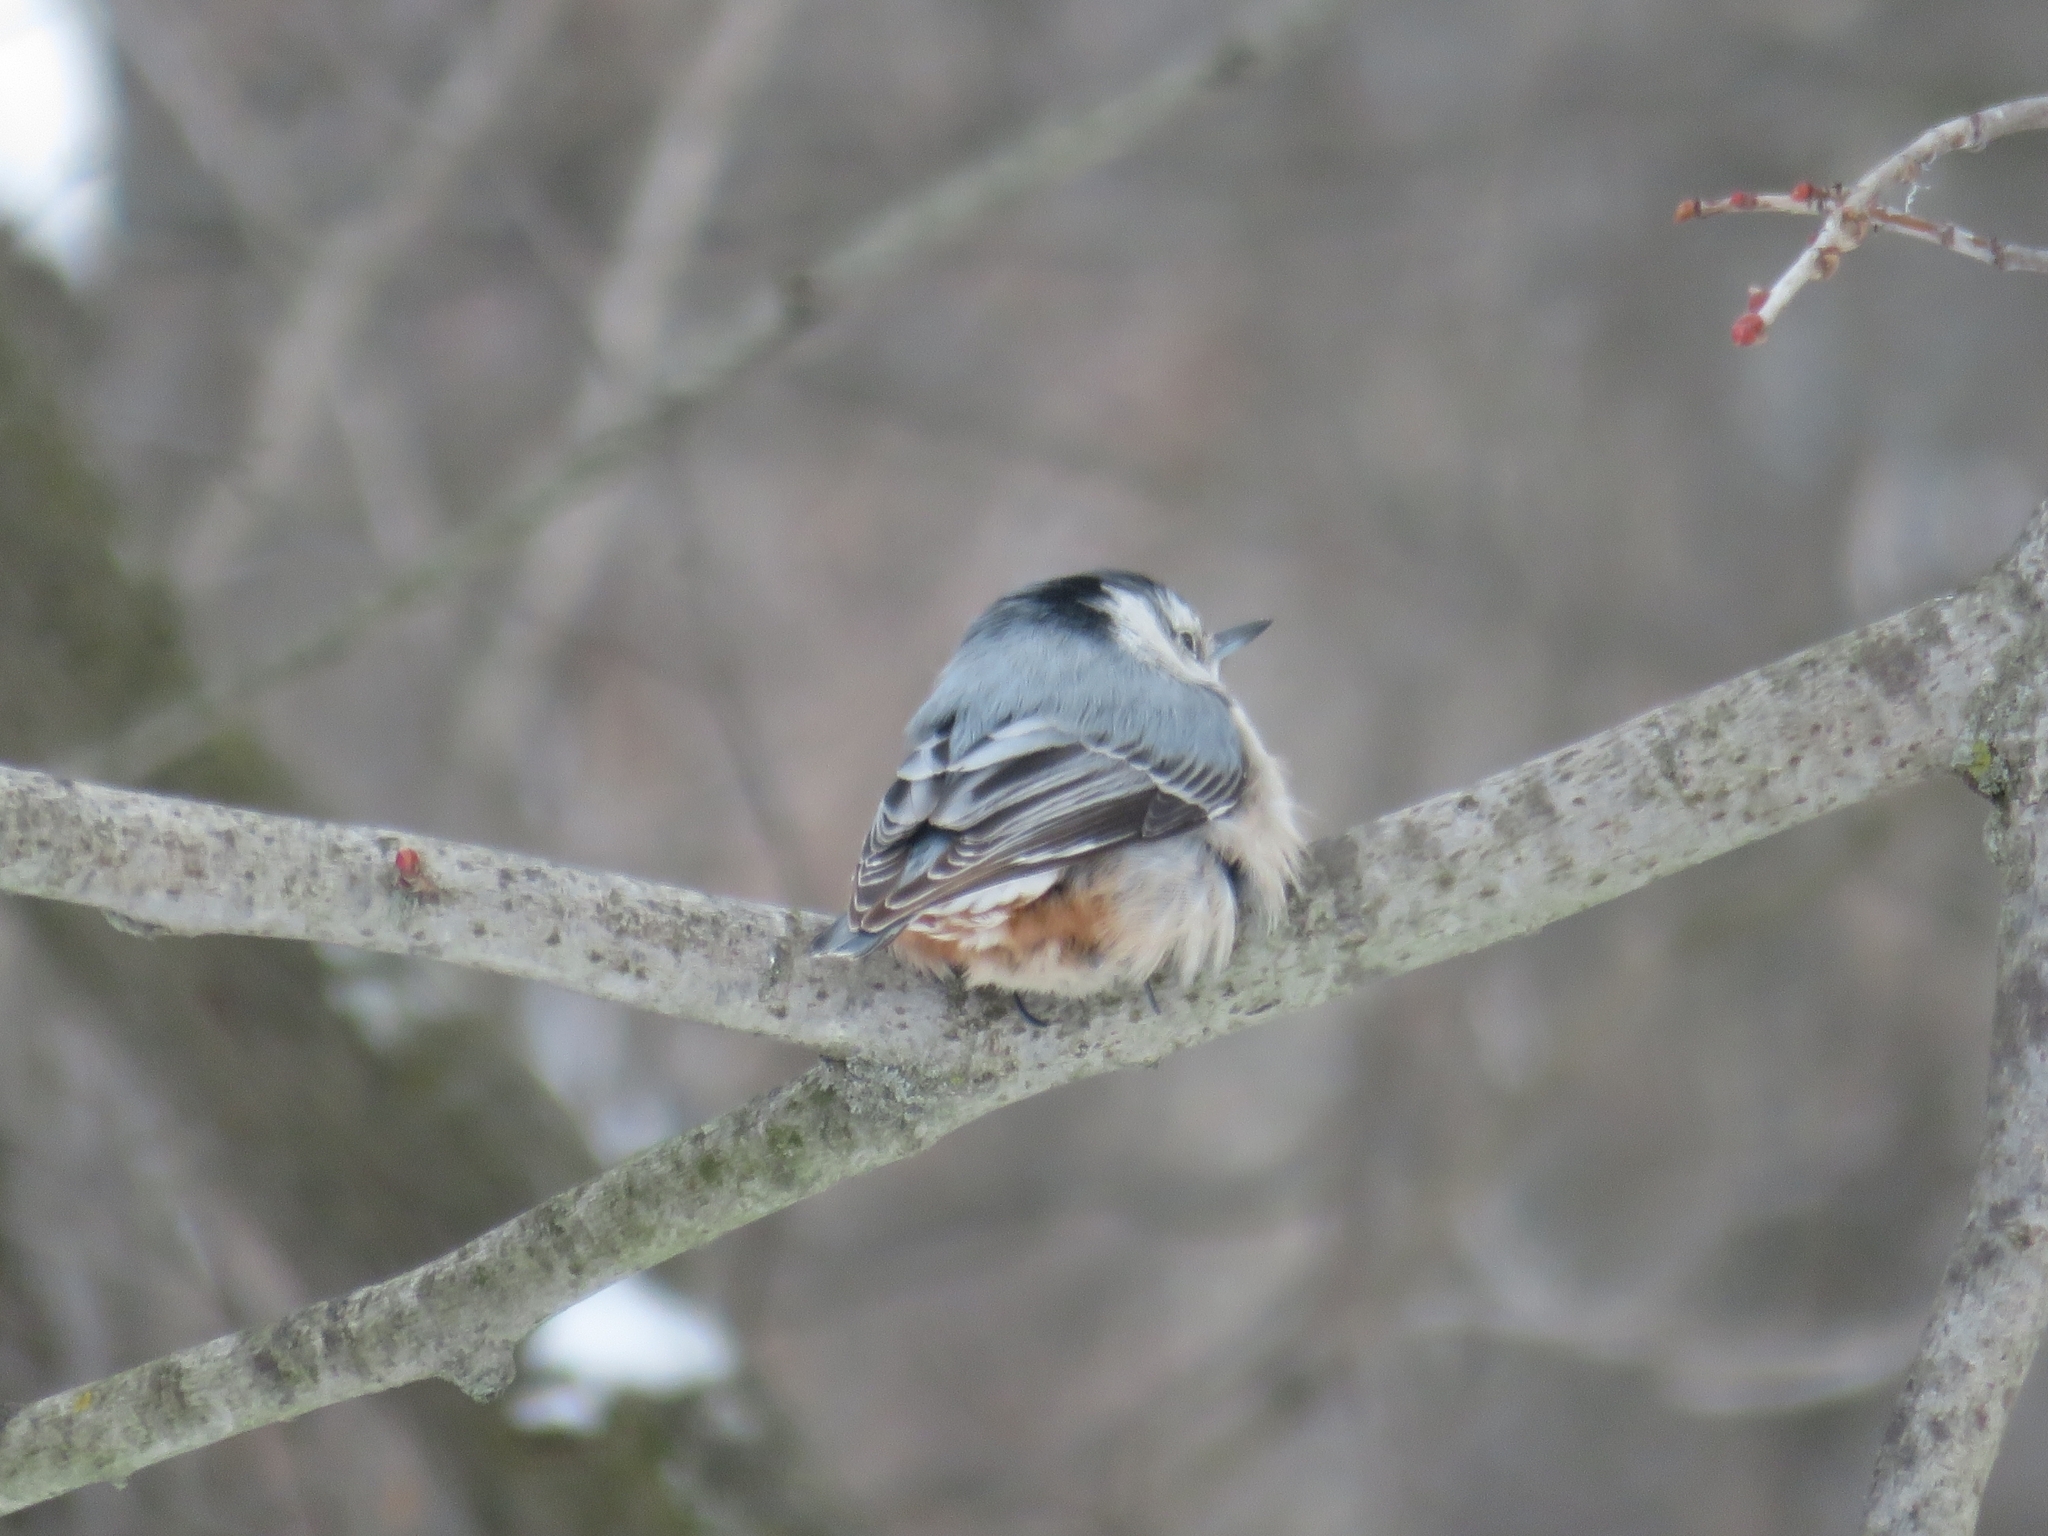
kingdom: Animalia
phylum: Chordata
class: Aves
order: Passeriformes
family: Sittidae
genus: Sitta
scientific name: Sitta carolinensis
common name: White-breasted nuthatch
